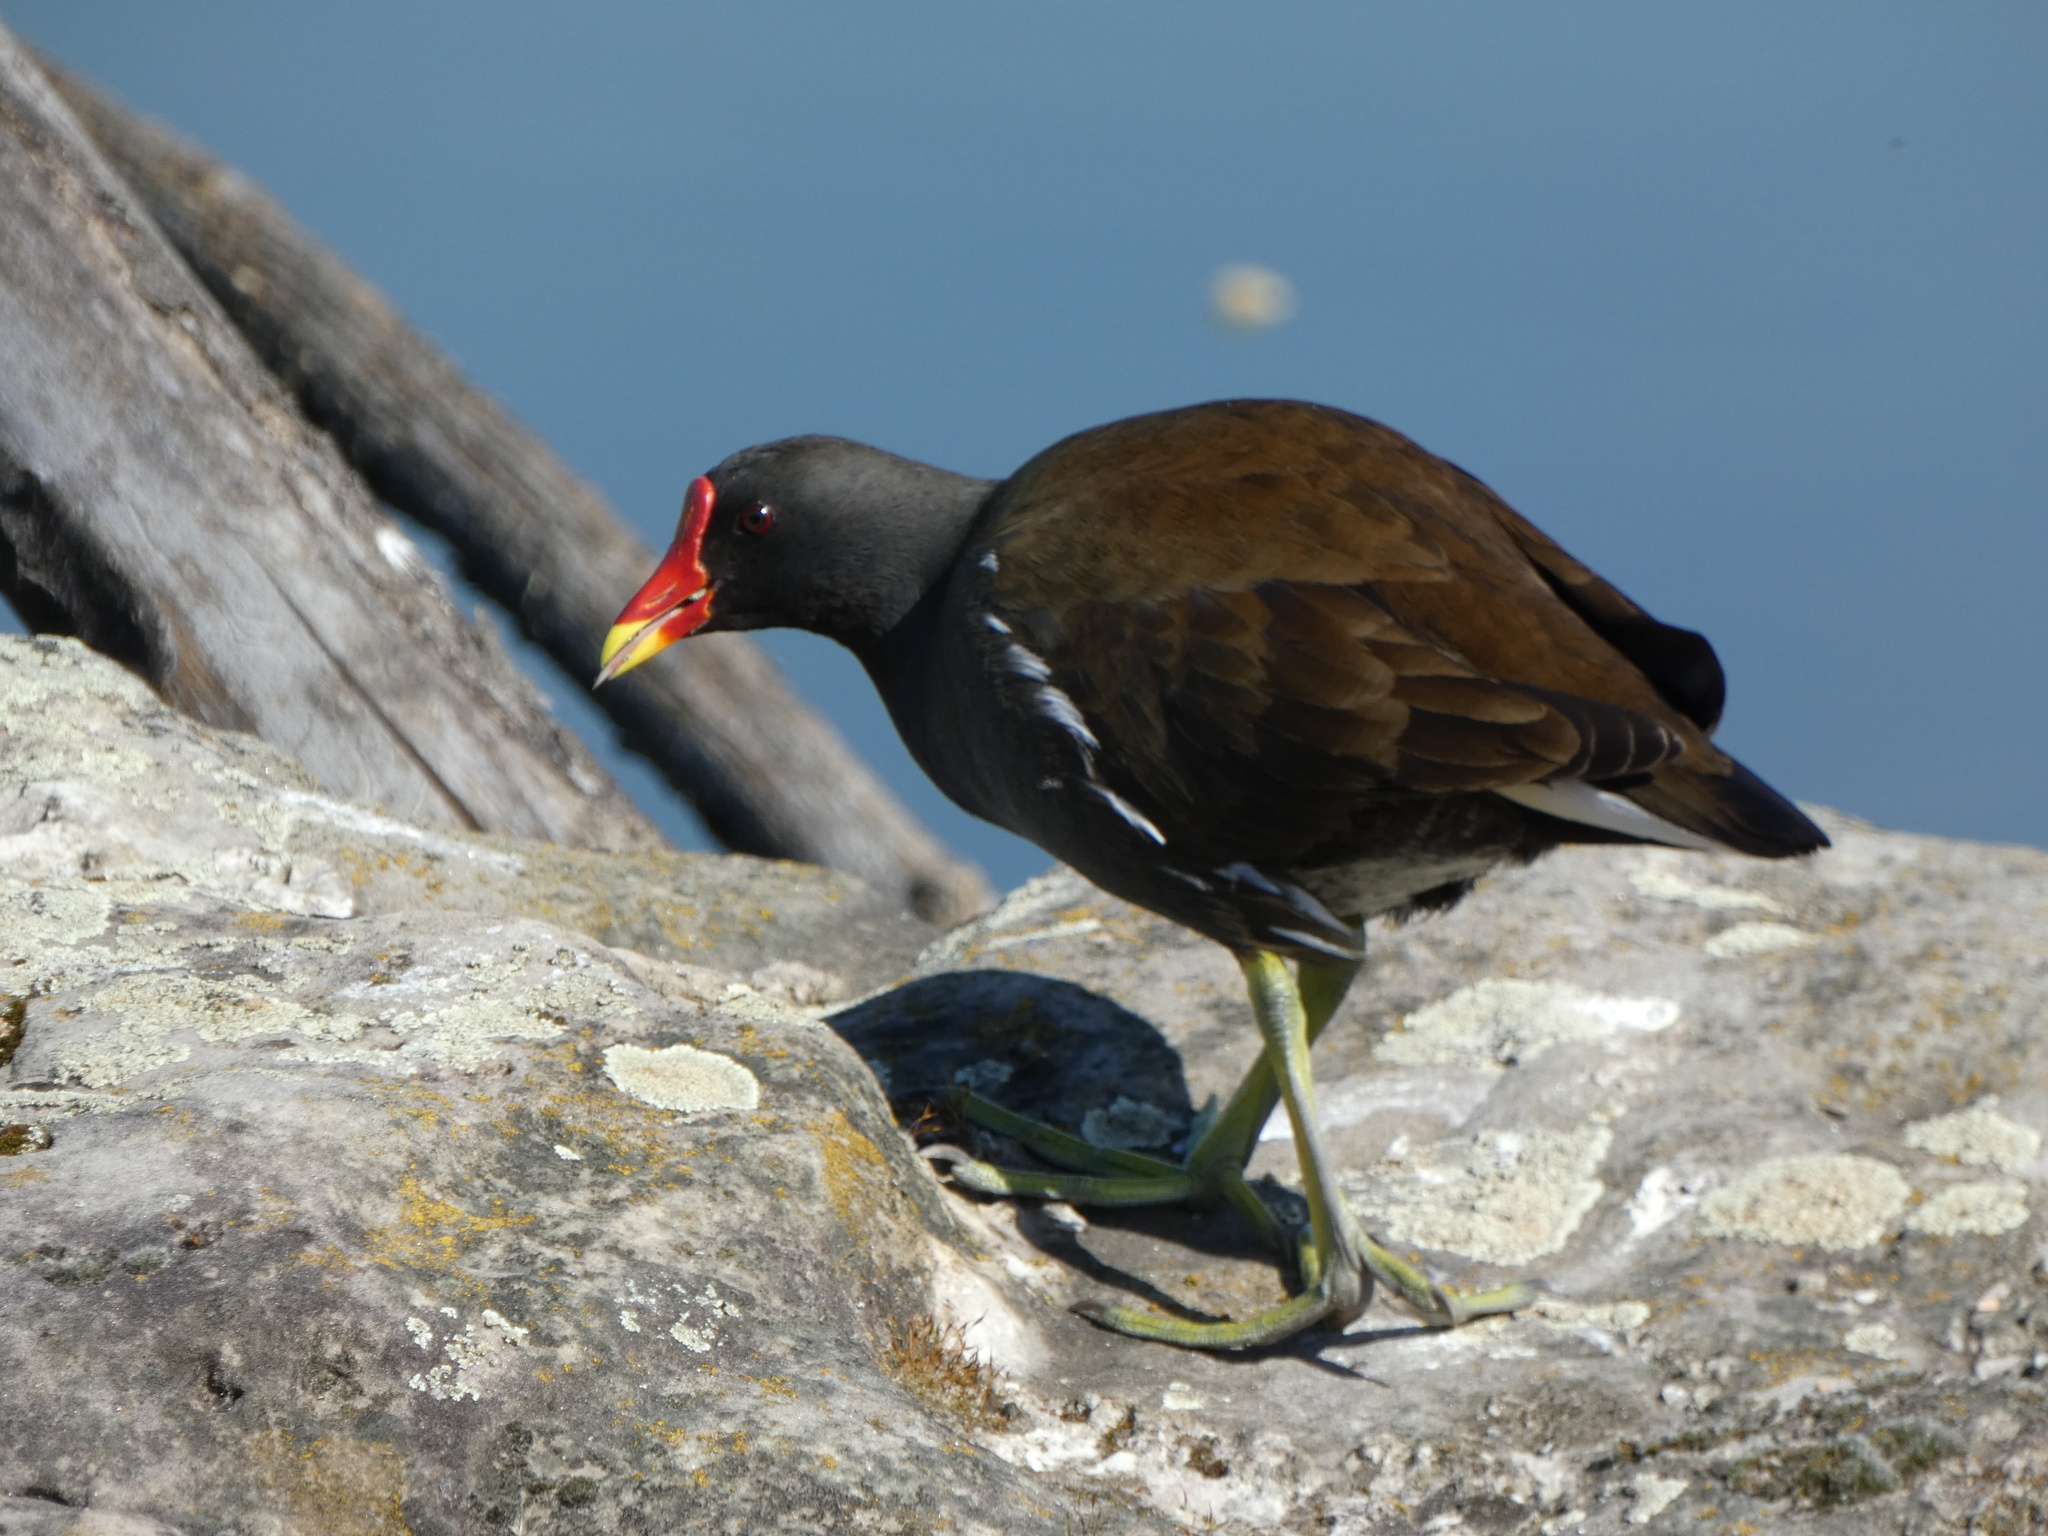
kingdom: Animalia
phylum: Chordata
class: Aves
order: Gruiformes
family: Rallidae
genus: Gallinula
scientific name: Gallinula chloropus
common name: Common moorhen
